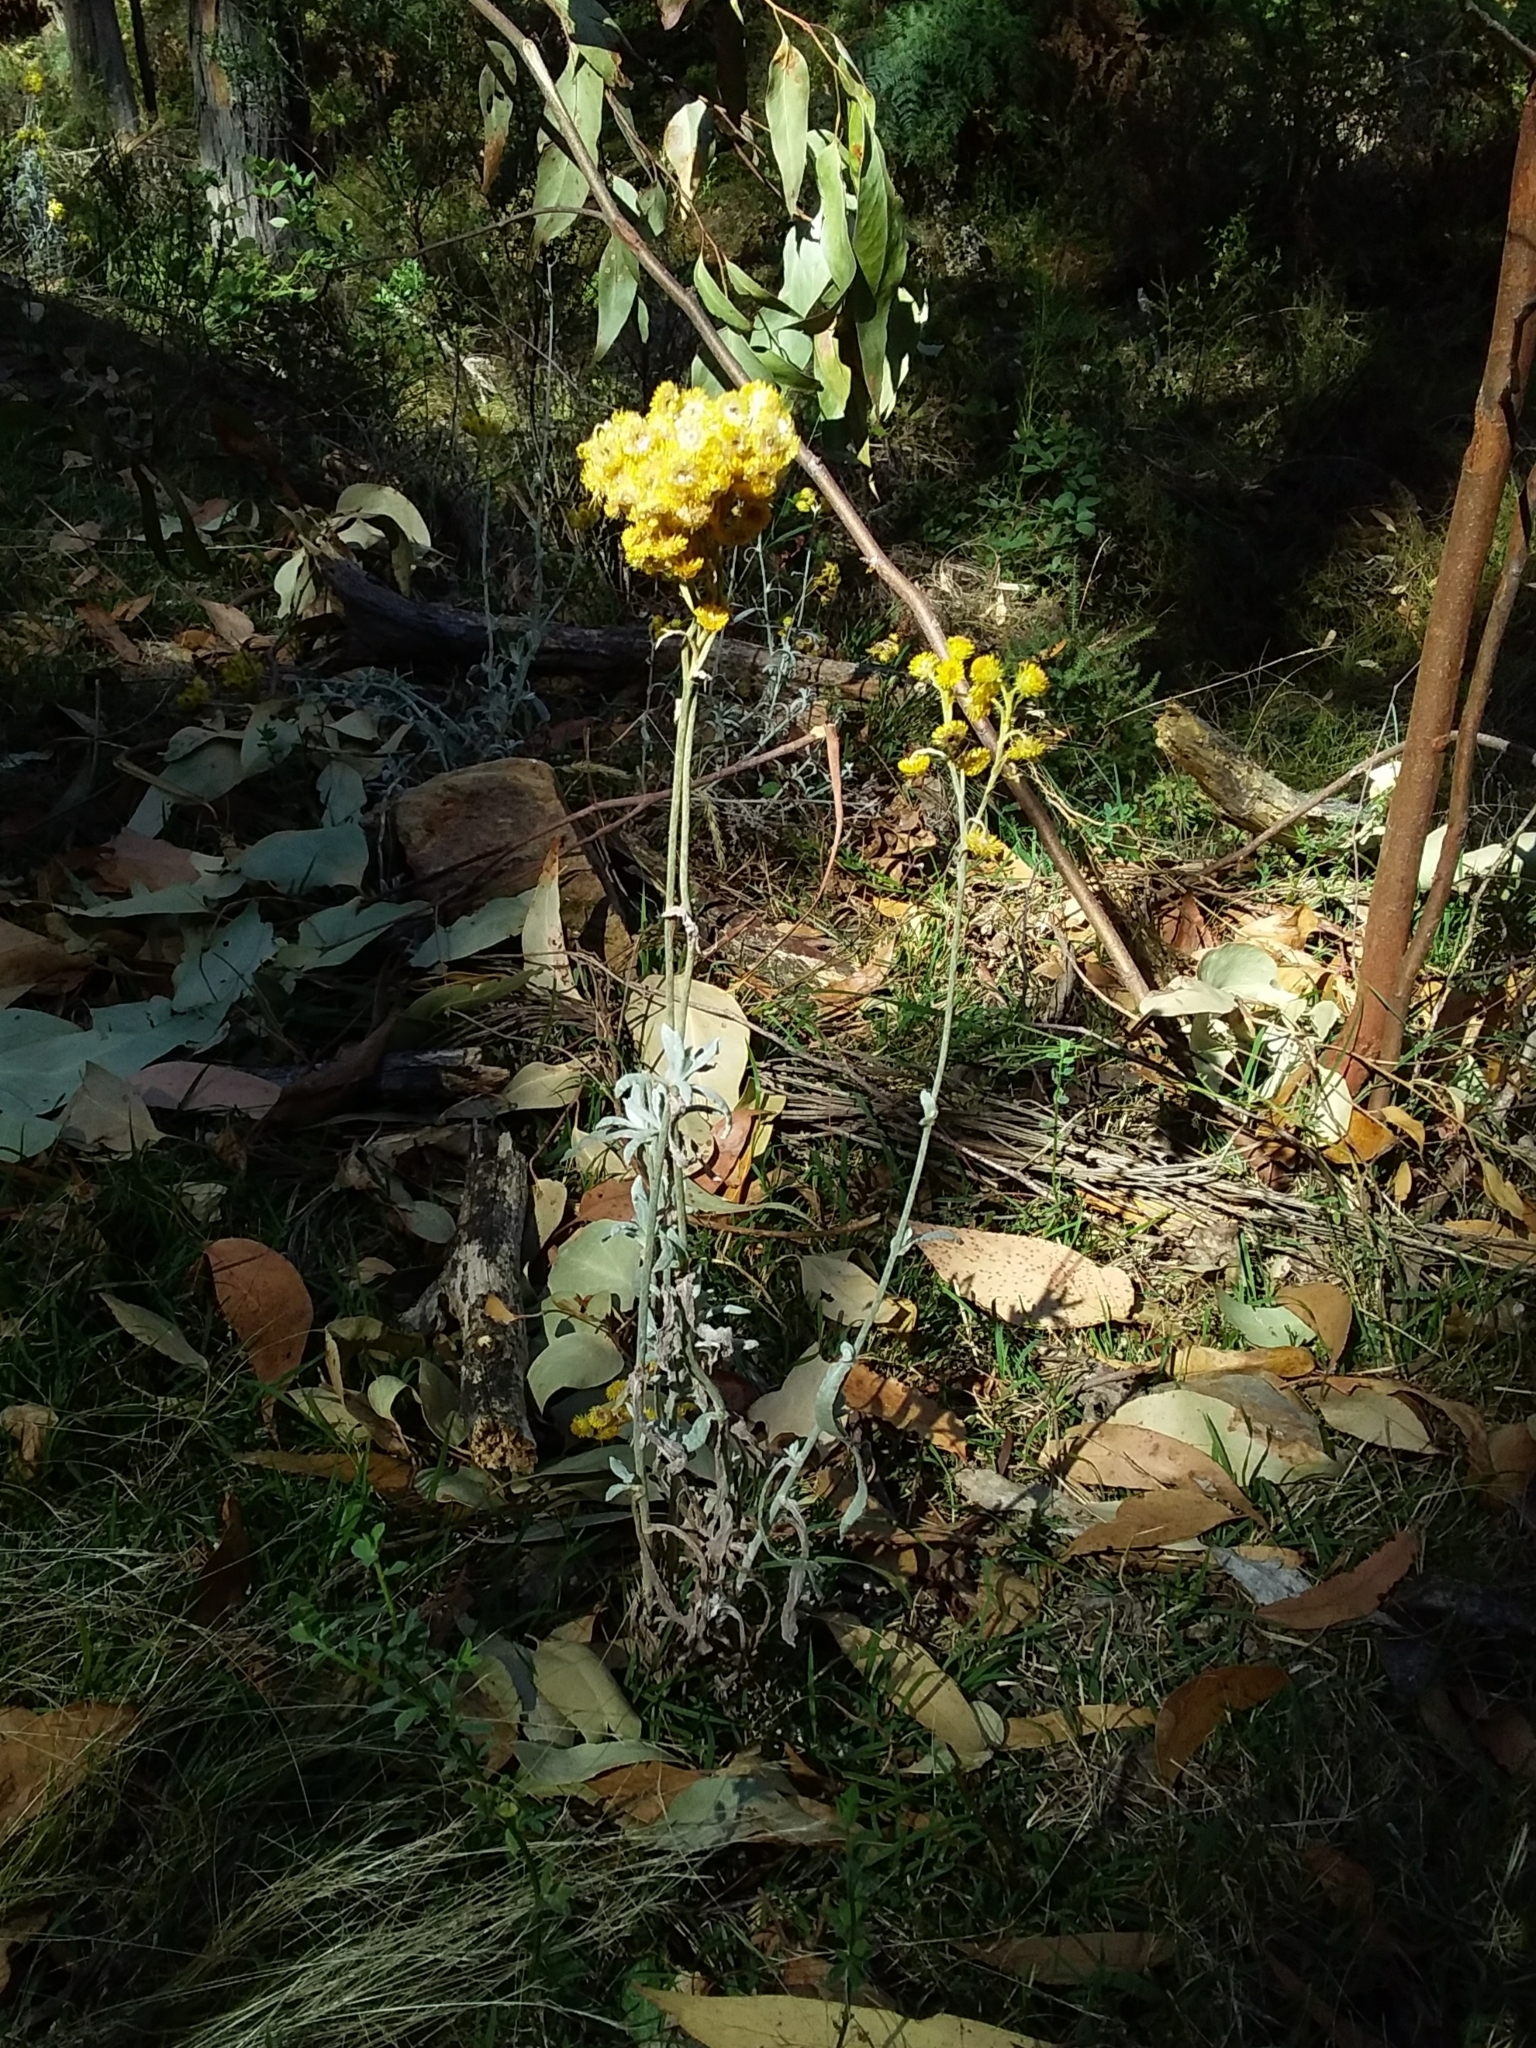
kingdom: Plantae
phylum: Tracheophyta
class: Magnoliopsida
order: Asterales
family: Asteraceae
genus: Chrysocephalum
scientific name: Chrysocephalum apiculatum
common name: Common everlasting
